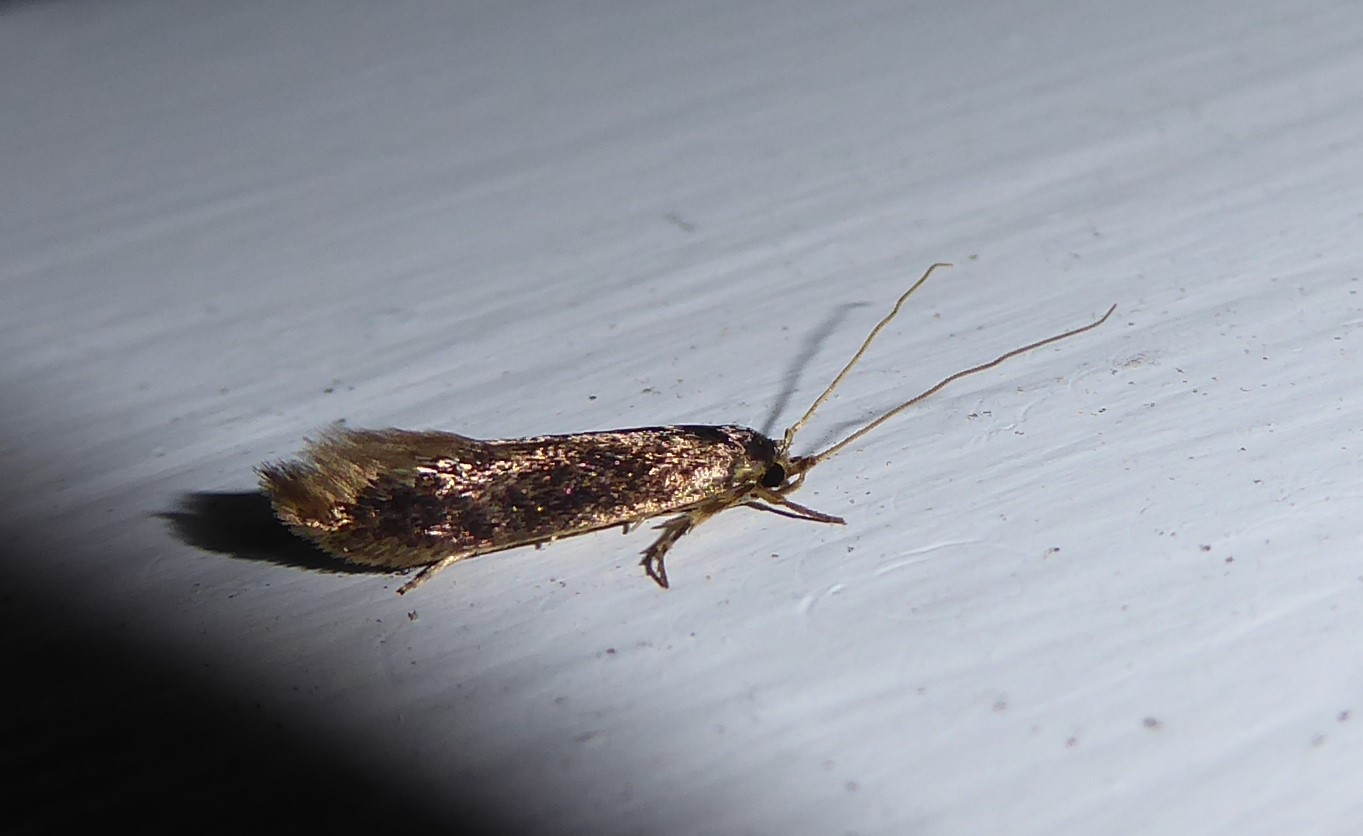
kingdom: Animalia
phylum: Arthropoda
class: Insecta
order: Lepidoptera
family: Tineidae
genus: Opogona
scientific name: Opogona omoscopa
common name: Moth
